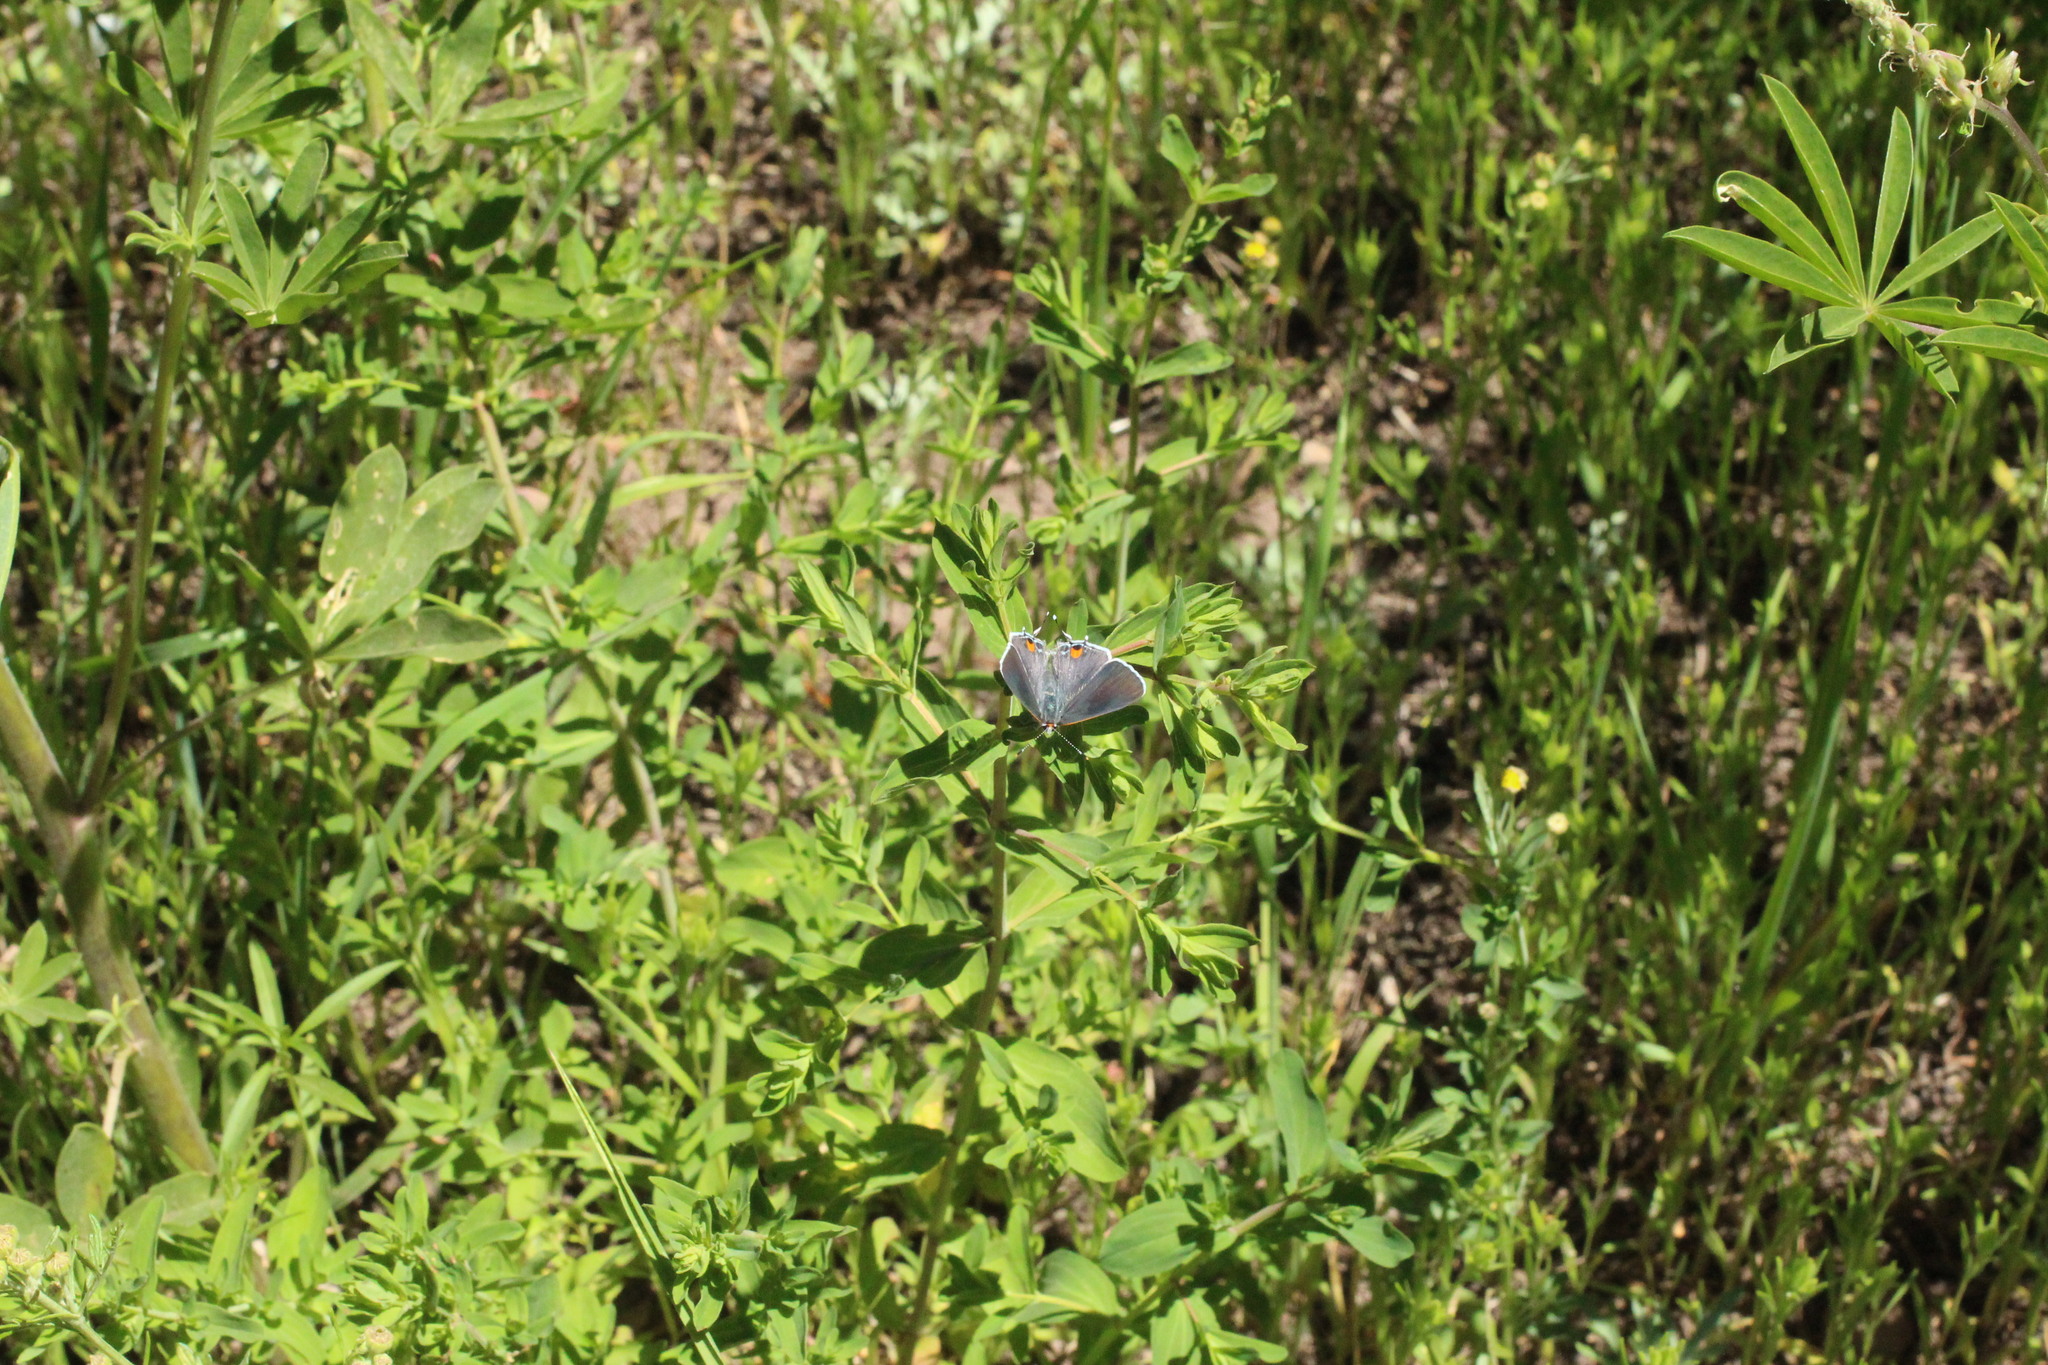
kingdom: Animalia
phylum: Arthropoda
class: Insecta
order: Lepidoptera
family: Lycaenidae
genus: Strymon
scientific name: Strymon melinus
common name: Gray hairstreak
